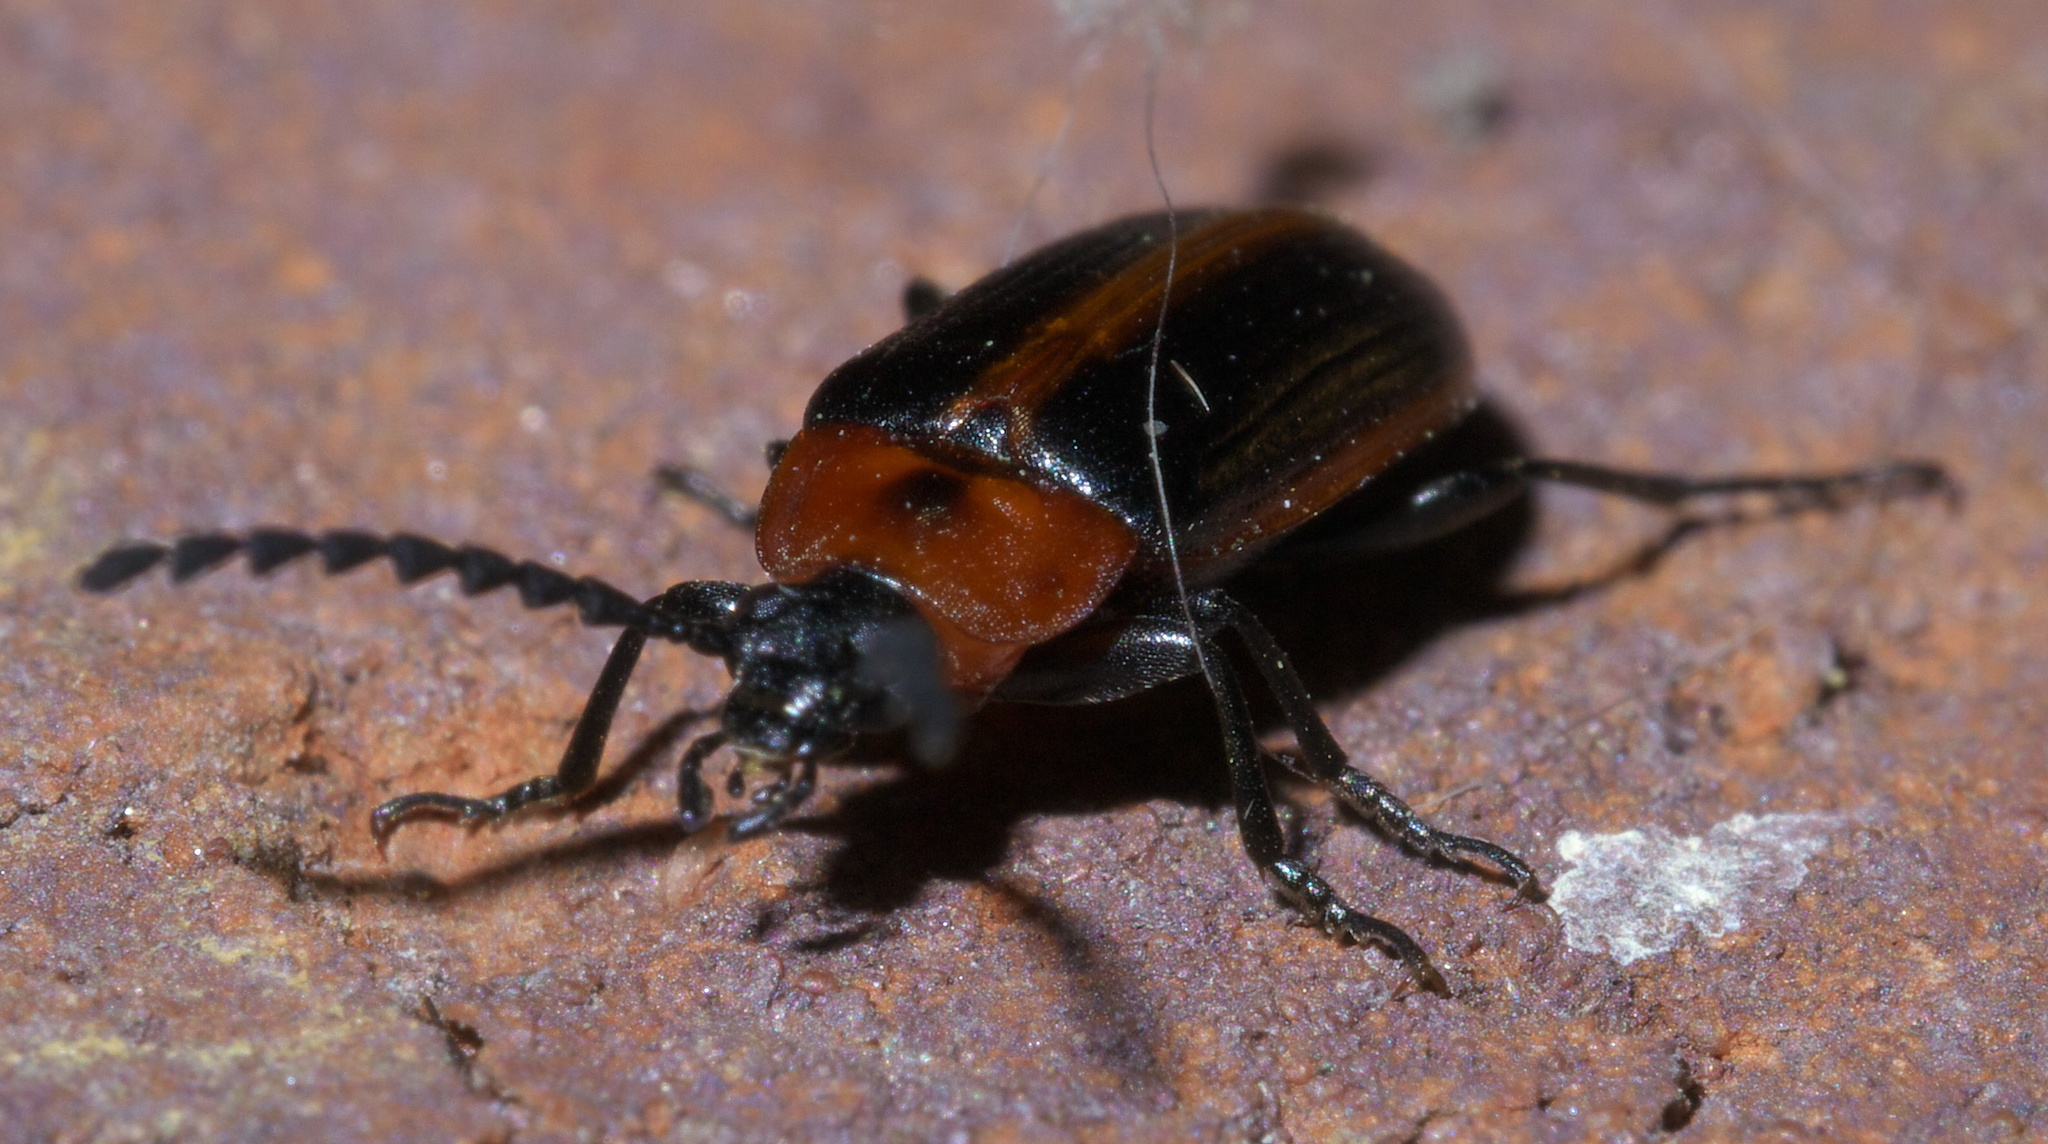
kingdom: Animalia
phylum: Arthropoda
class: Insecta
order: Coleoptera
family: Tenebrionidae
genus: Chromatia
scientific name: Chromatia amoena
